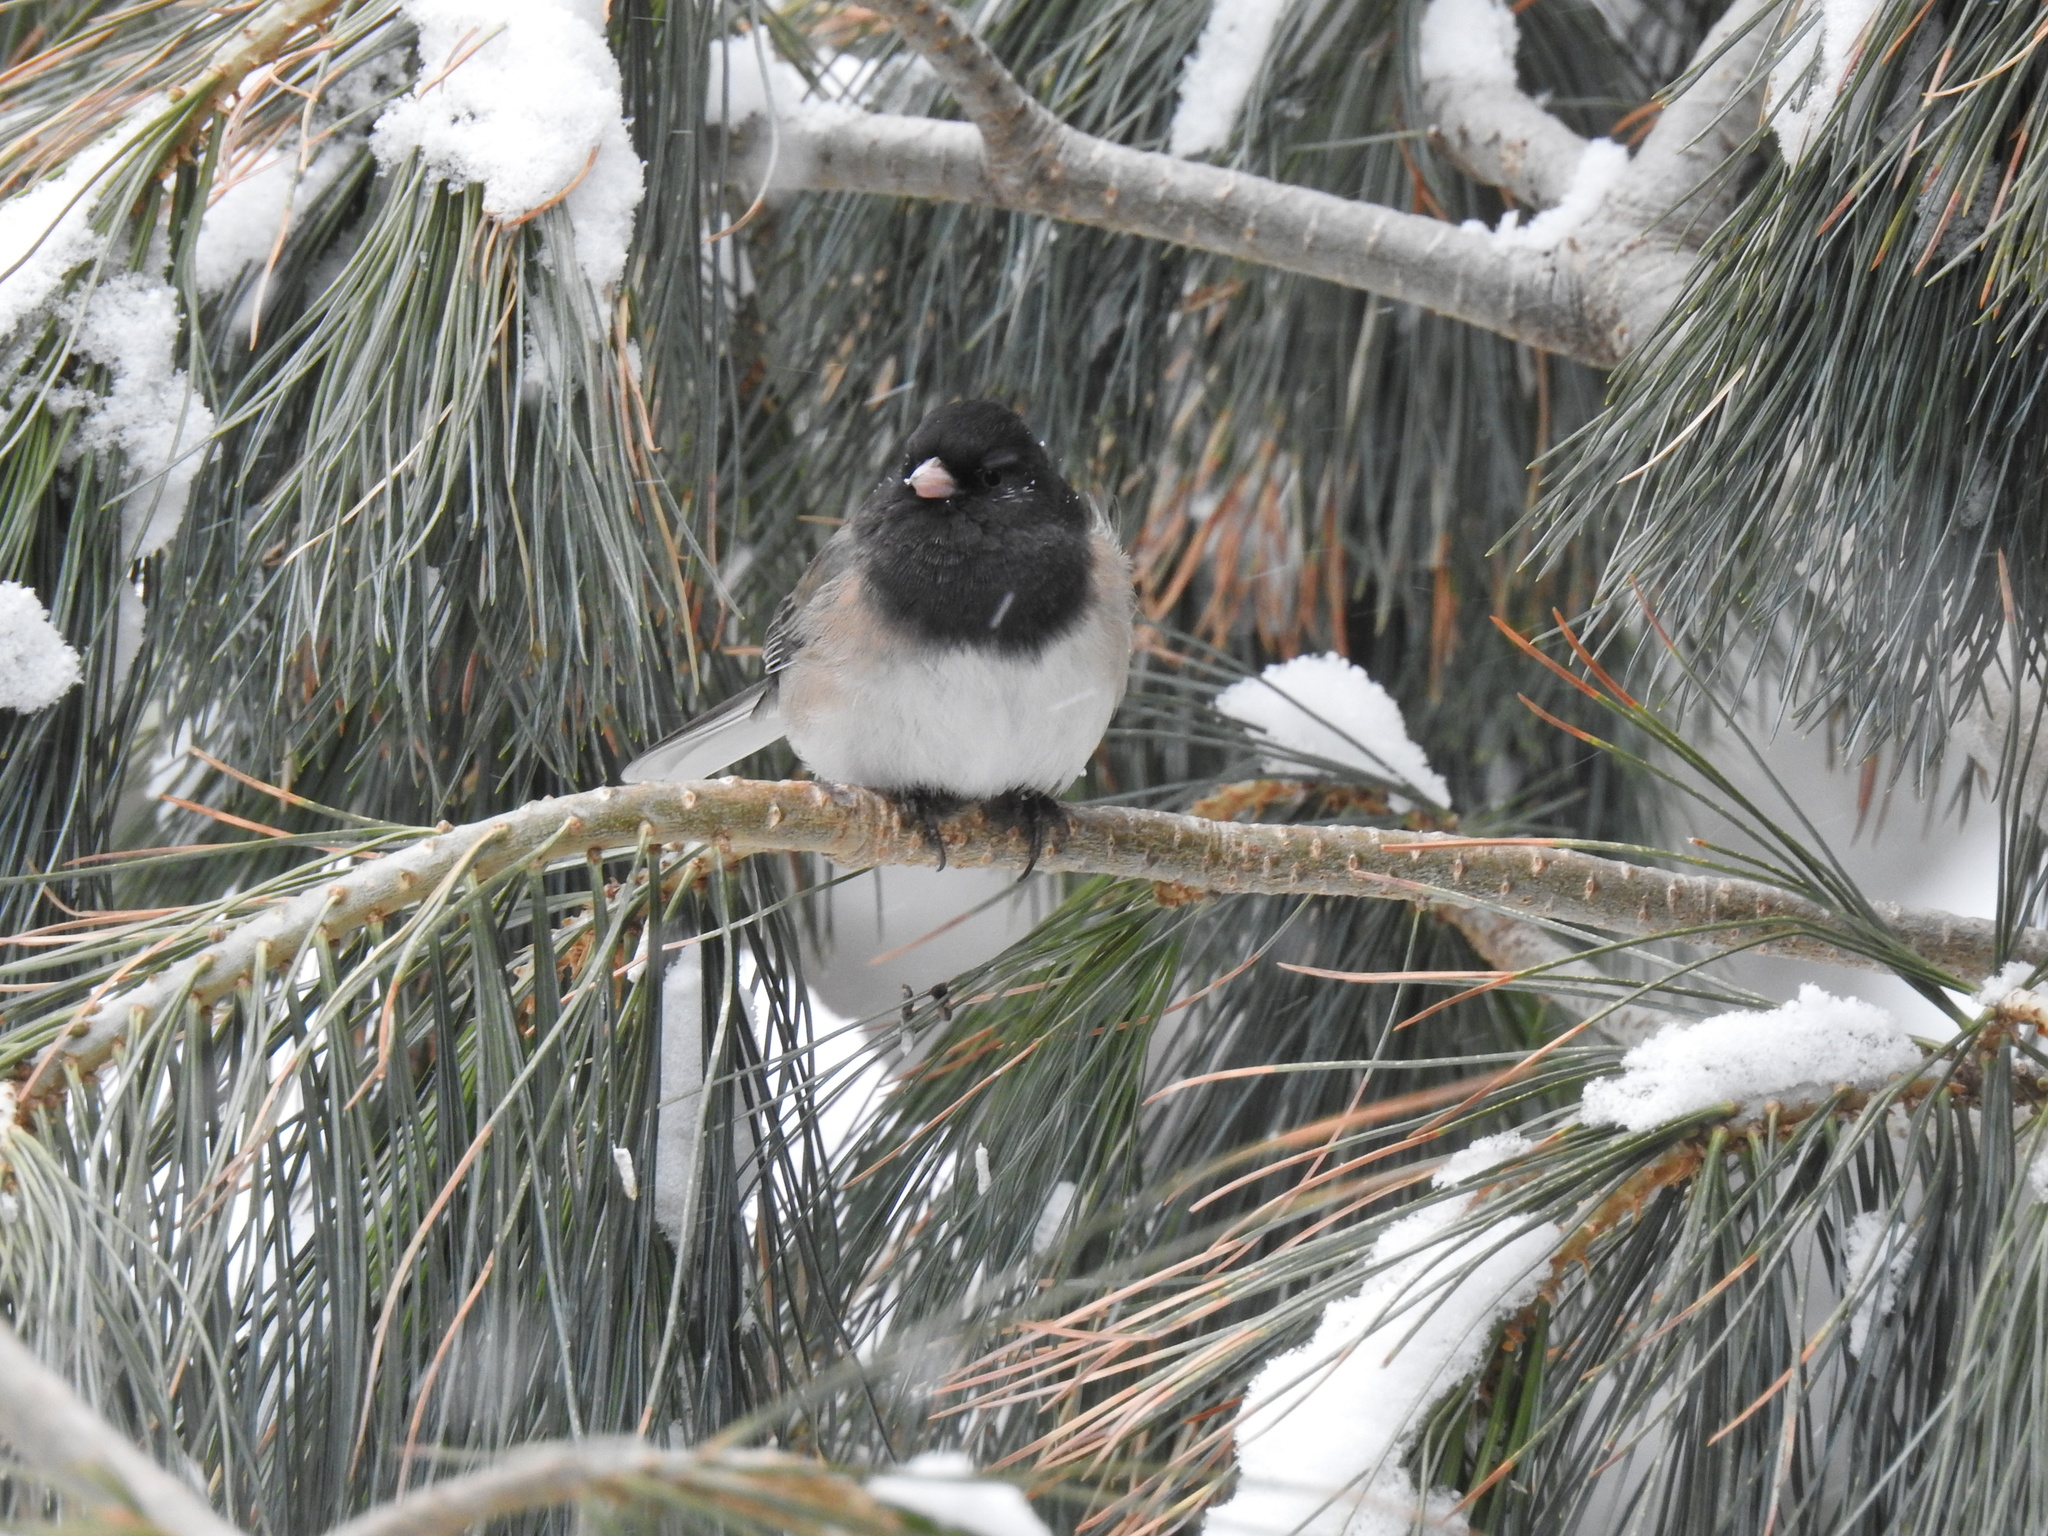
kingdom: Animalia
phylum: Chordata
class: Aves
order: Passeriformes
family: Passerellidae
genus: Junco
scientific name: Junco hyemalis
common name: Dark-eyed junco
